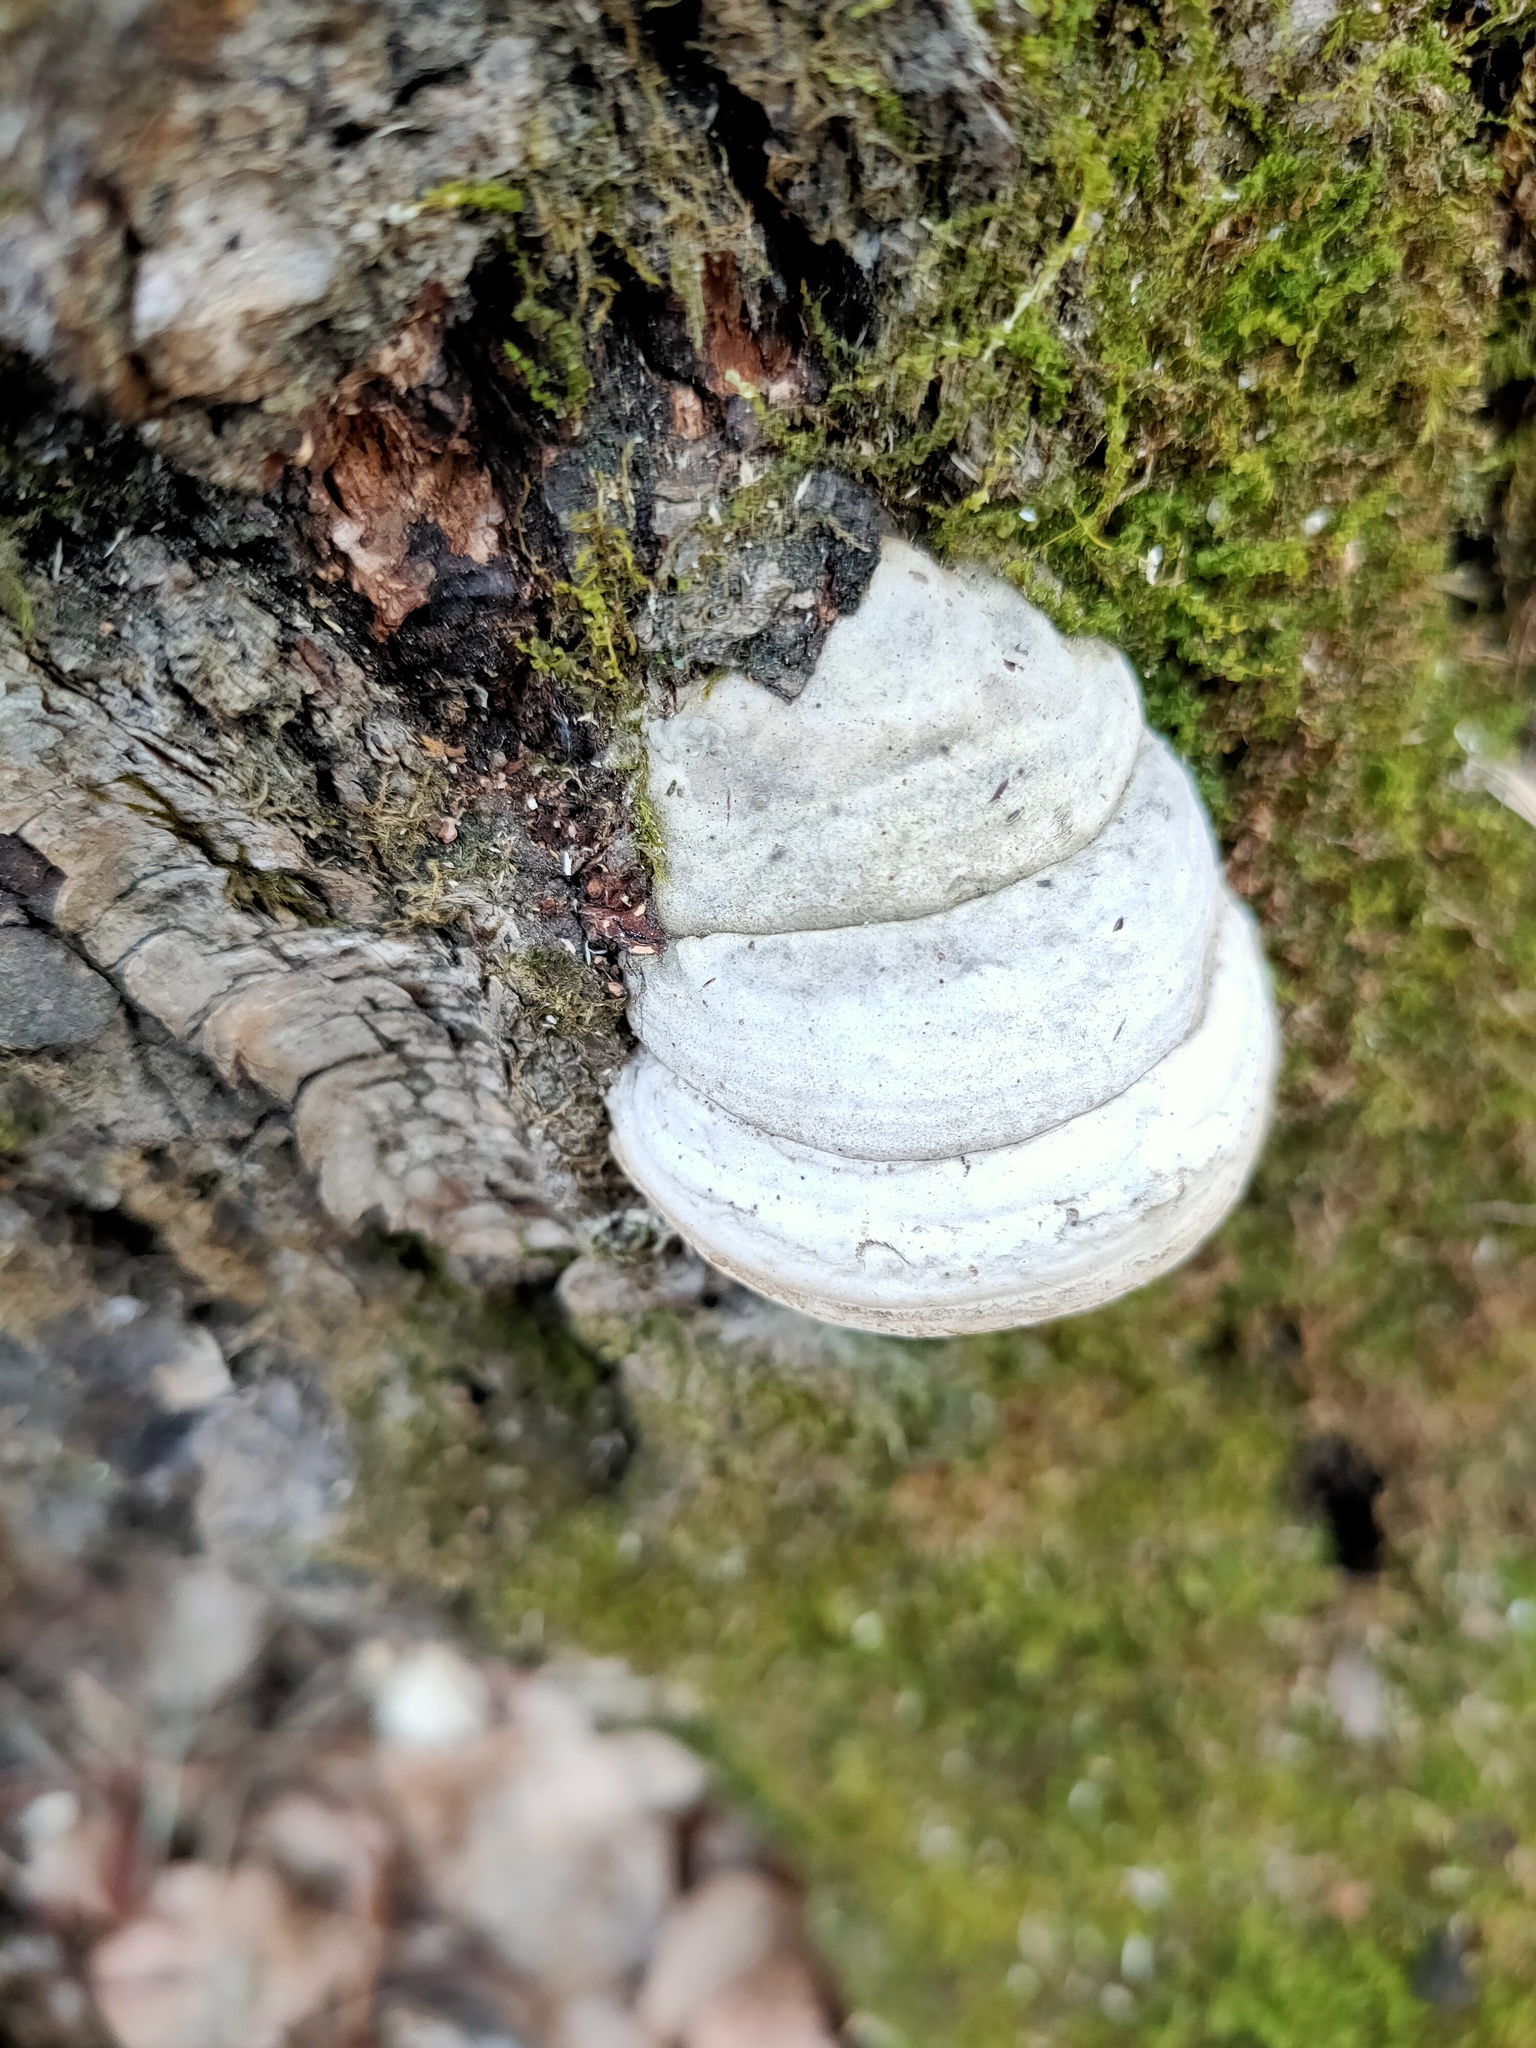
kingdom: Fungi
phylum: Basidiomycota
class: Agaricomycetes
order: Polyporales
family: Polyporaceae
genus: Fomes
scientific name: Fomes fomentarius
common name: Hoof fungus
